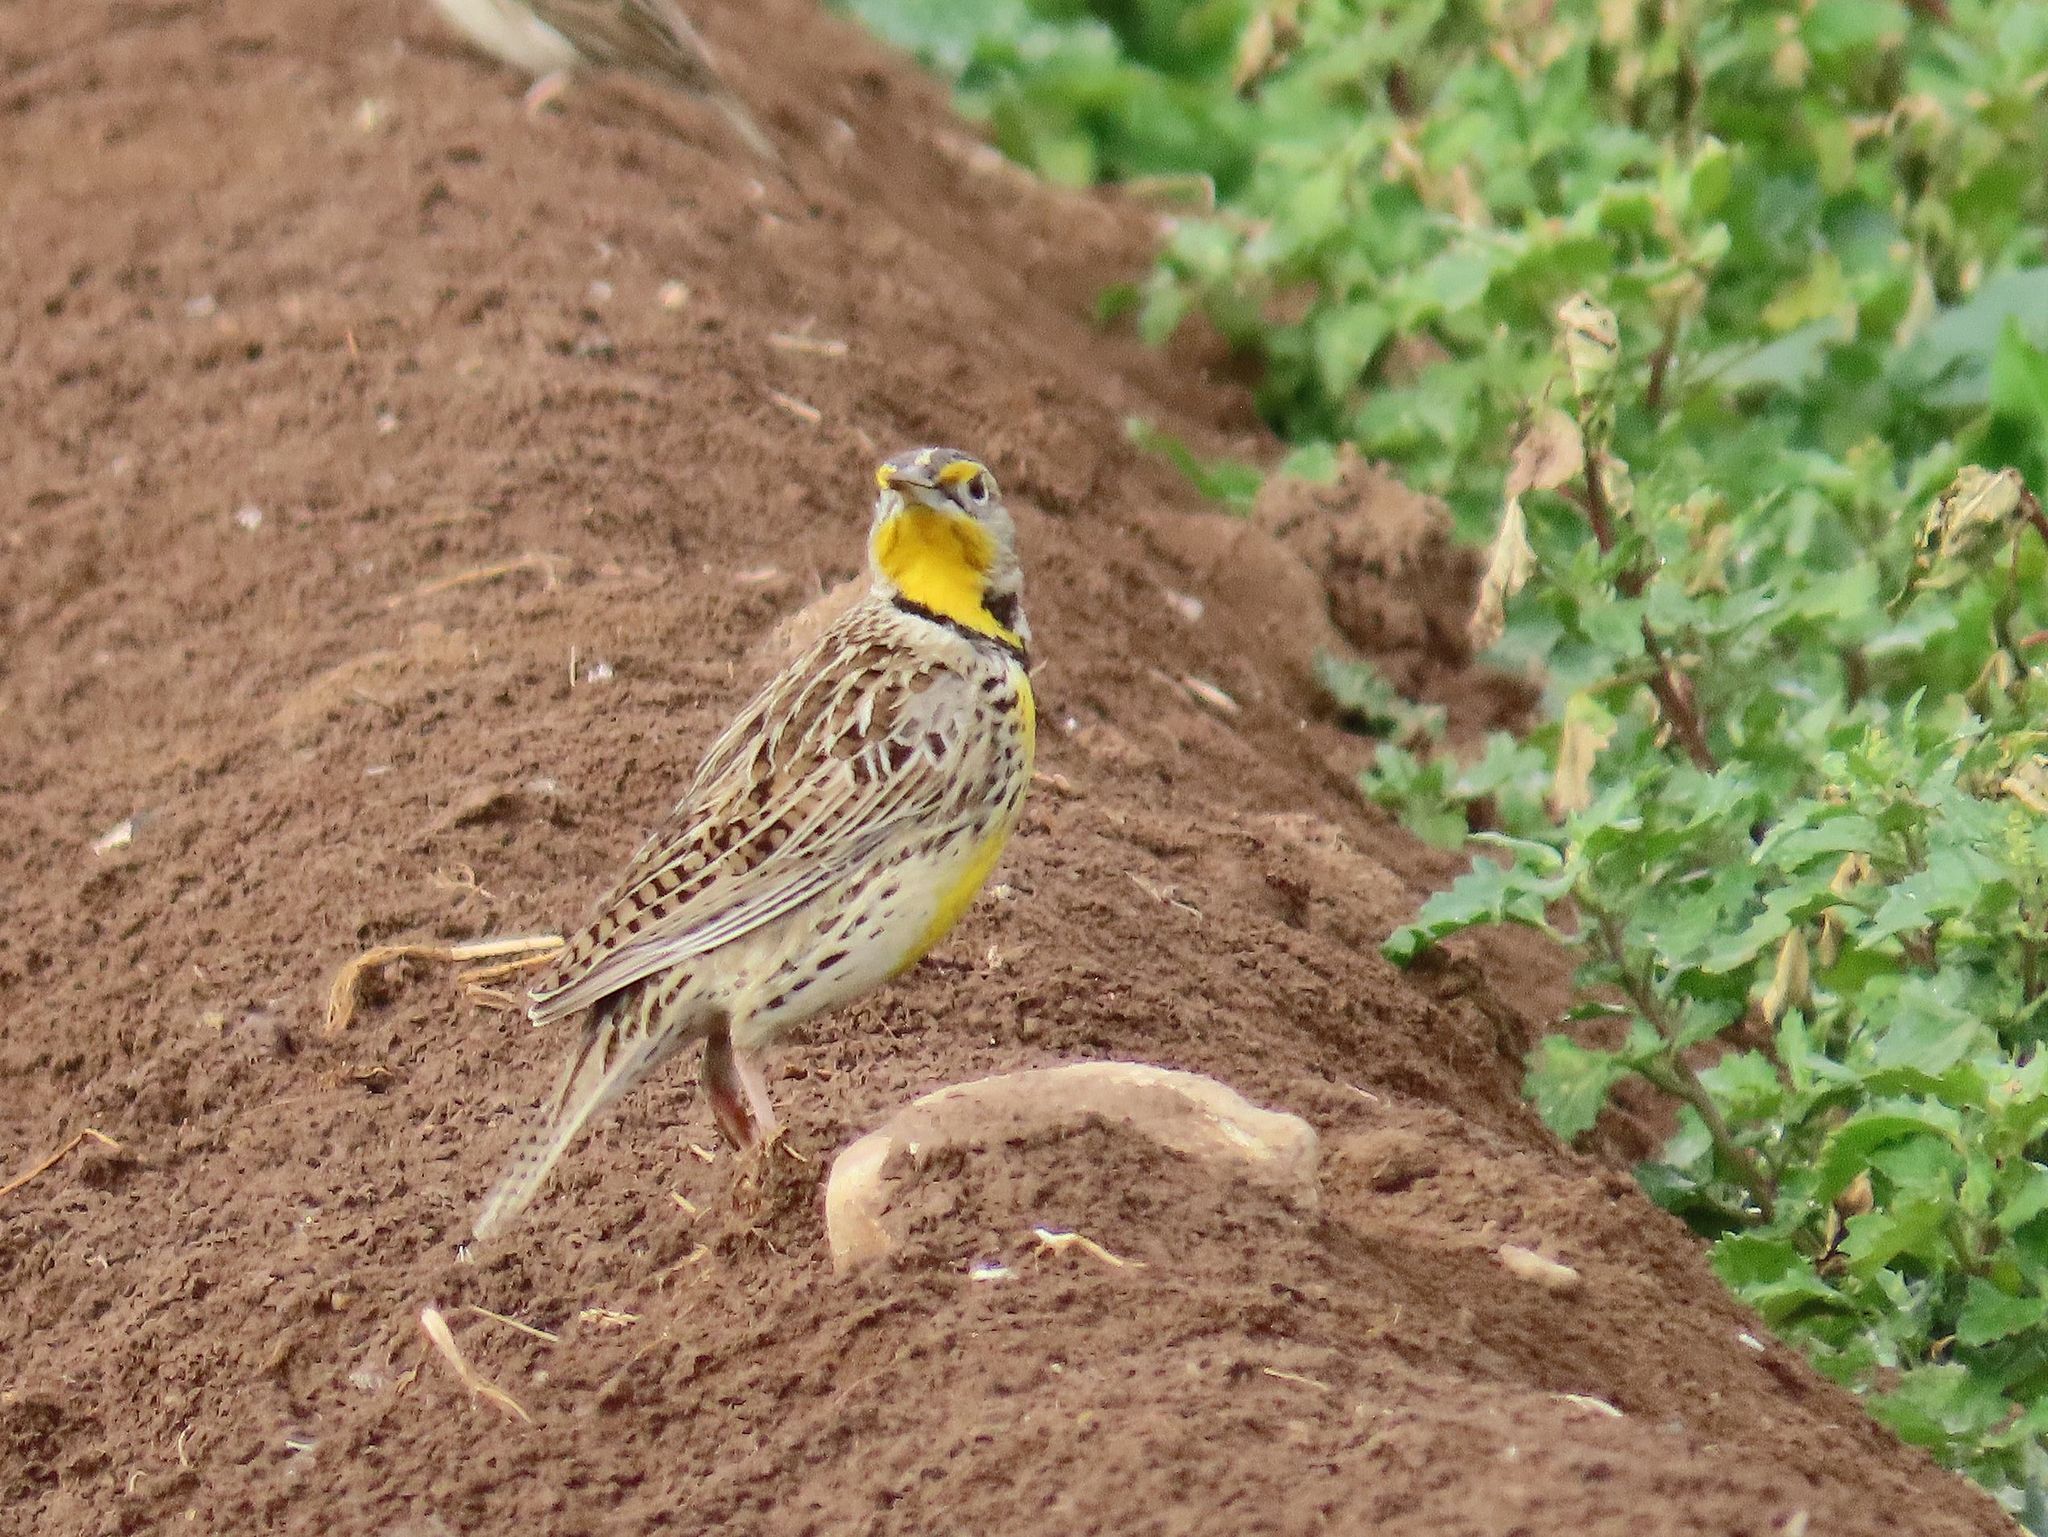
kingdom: Animalia
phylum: Chordata
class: Aves
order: Passeriformes
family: Icteridae
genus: Sturnella
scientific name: Sturnella neglecta
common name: Western meadowlark
